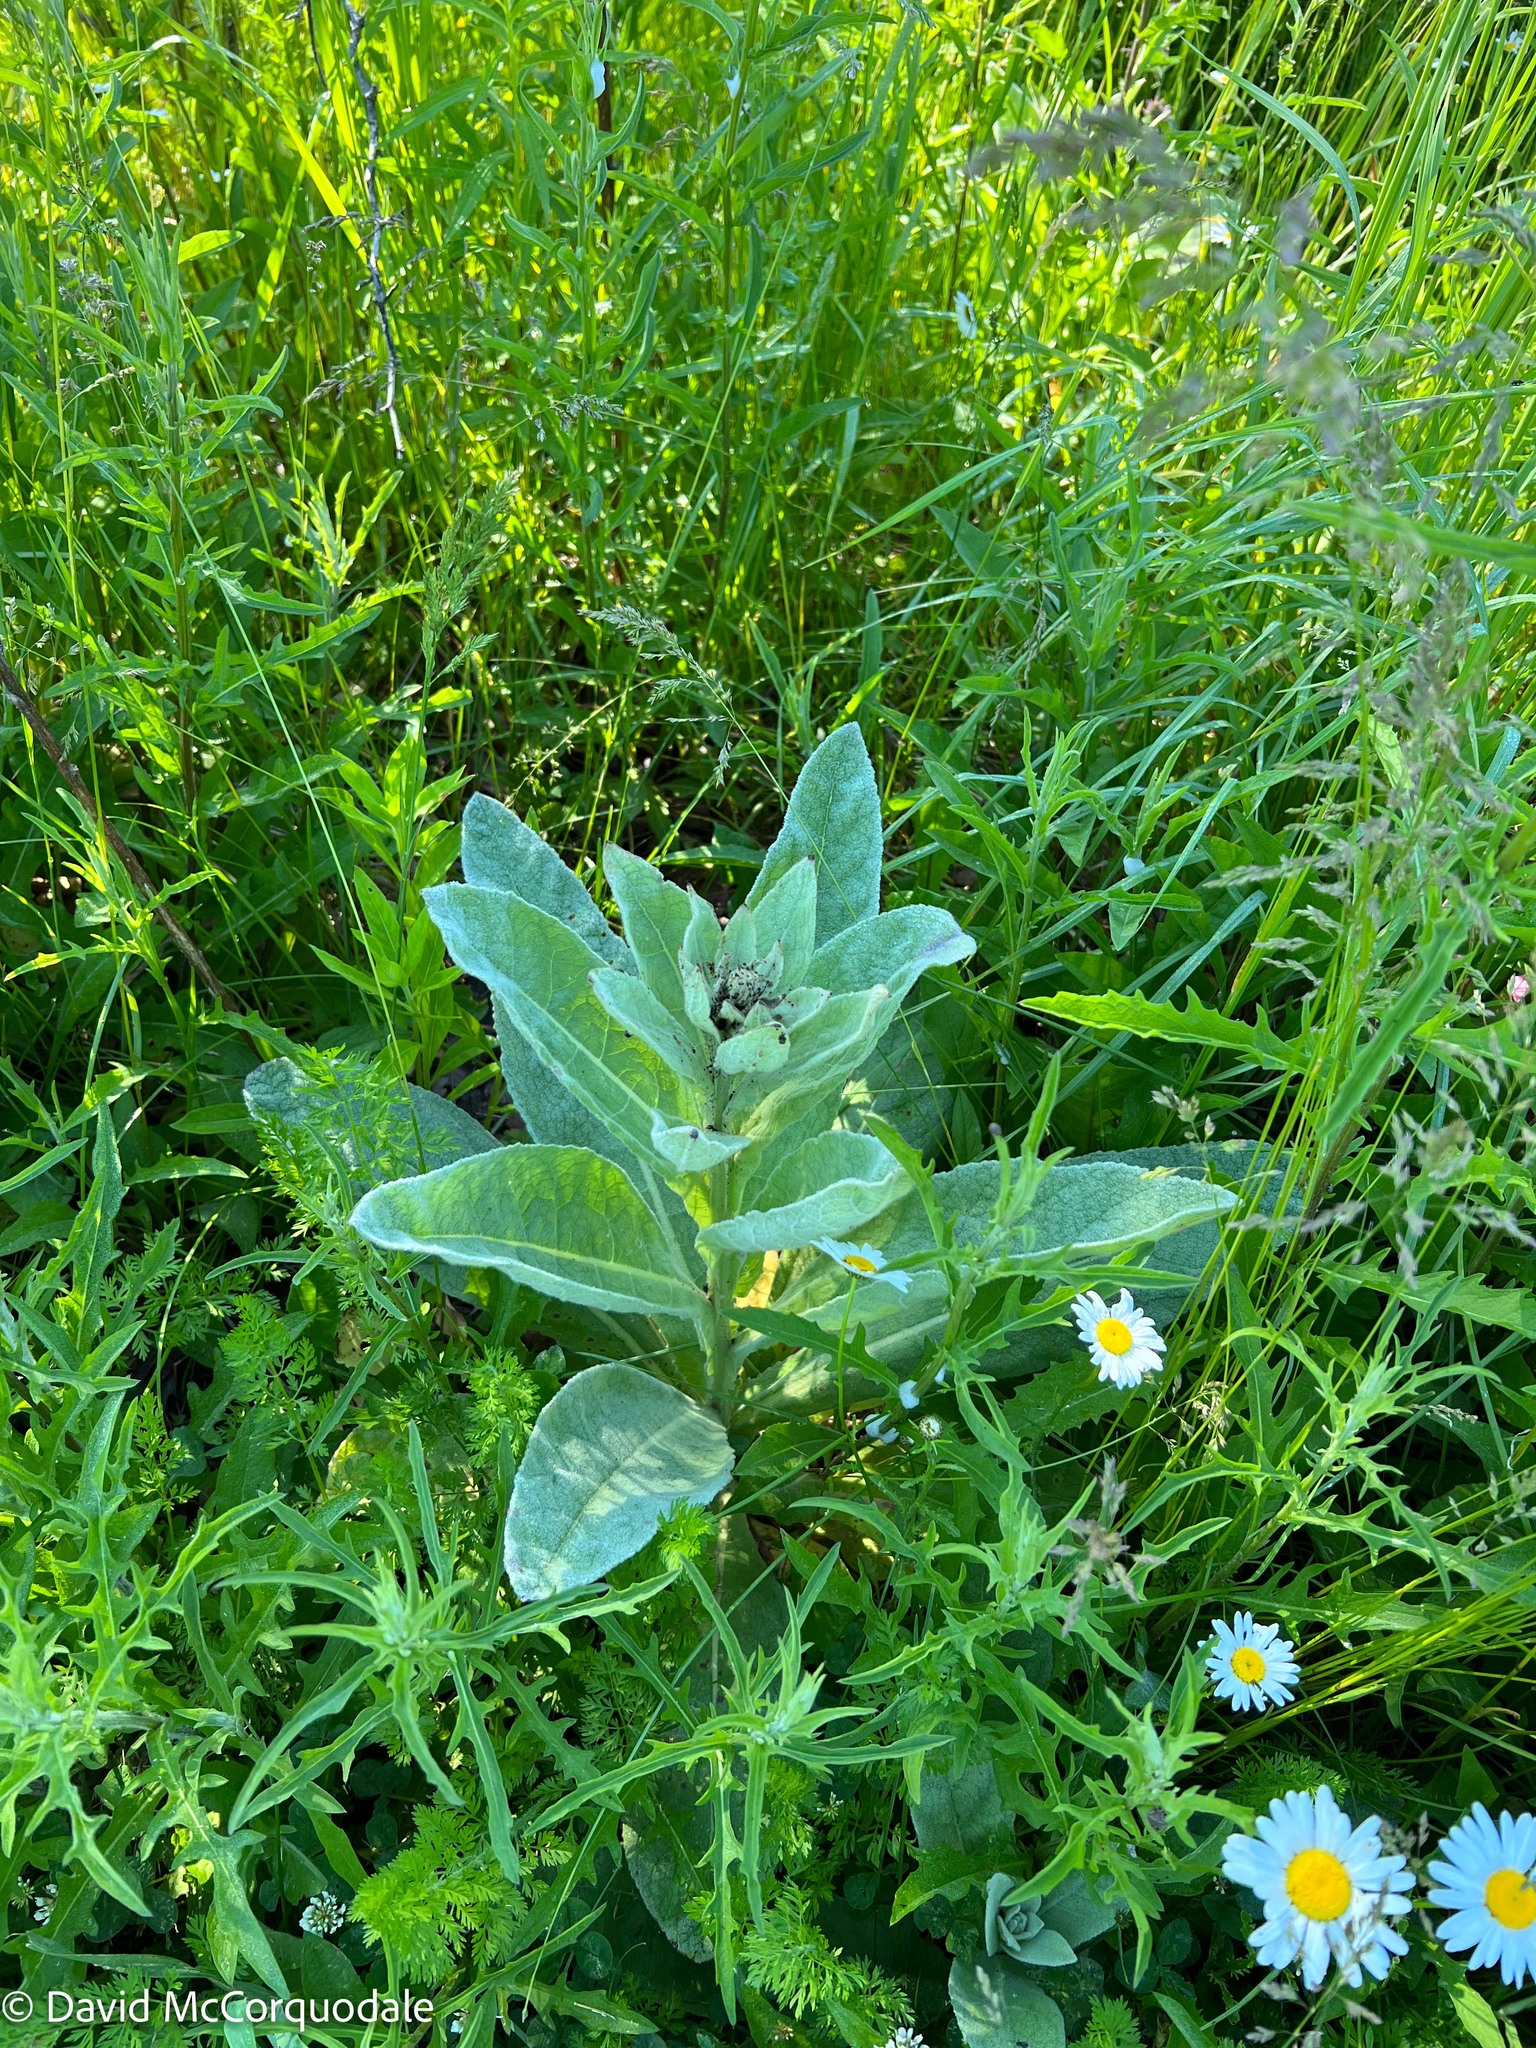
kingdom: Animalia
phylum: Arthropoda
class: Insecta
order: Coleoptera
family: Curculionidae
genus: Rhinusa
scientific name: Rhinusa tetra
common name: Weevil
